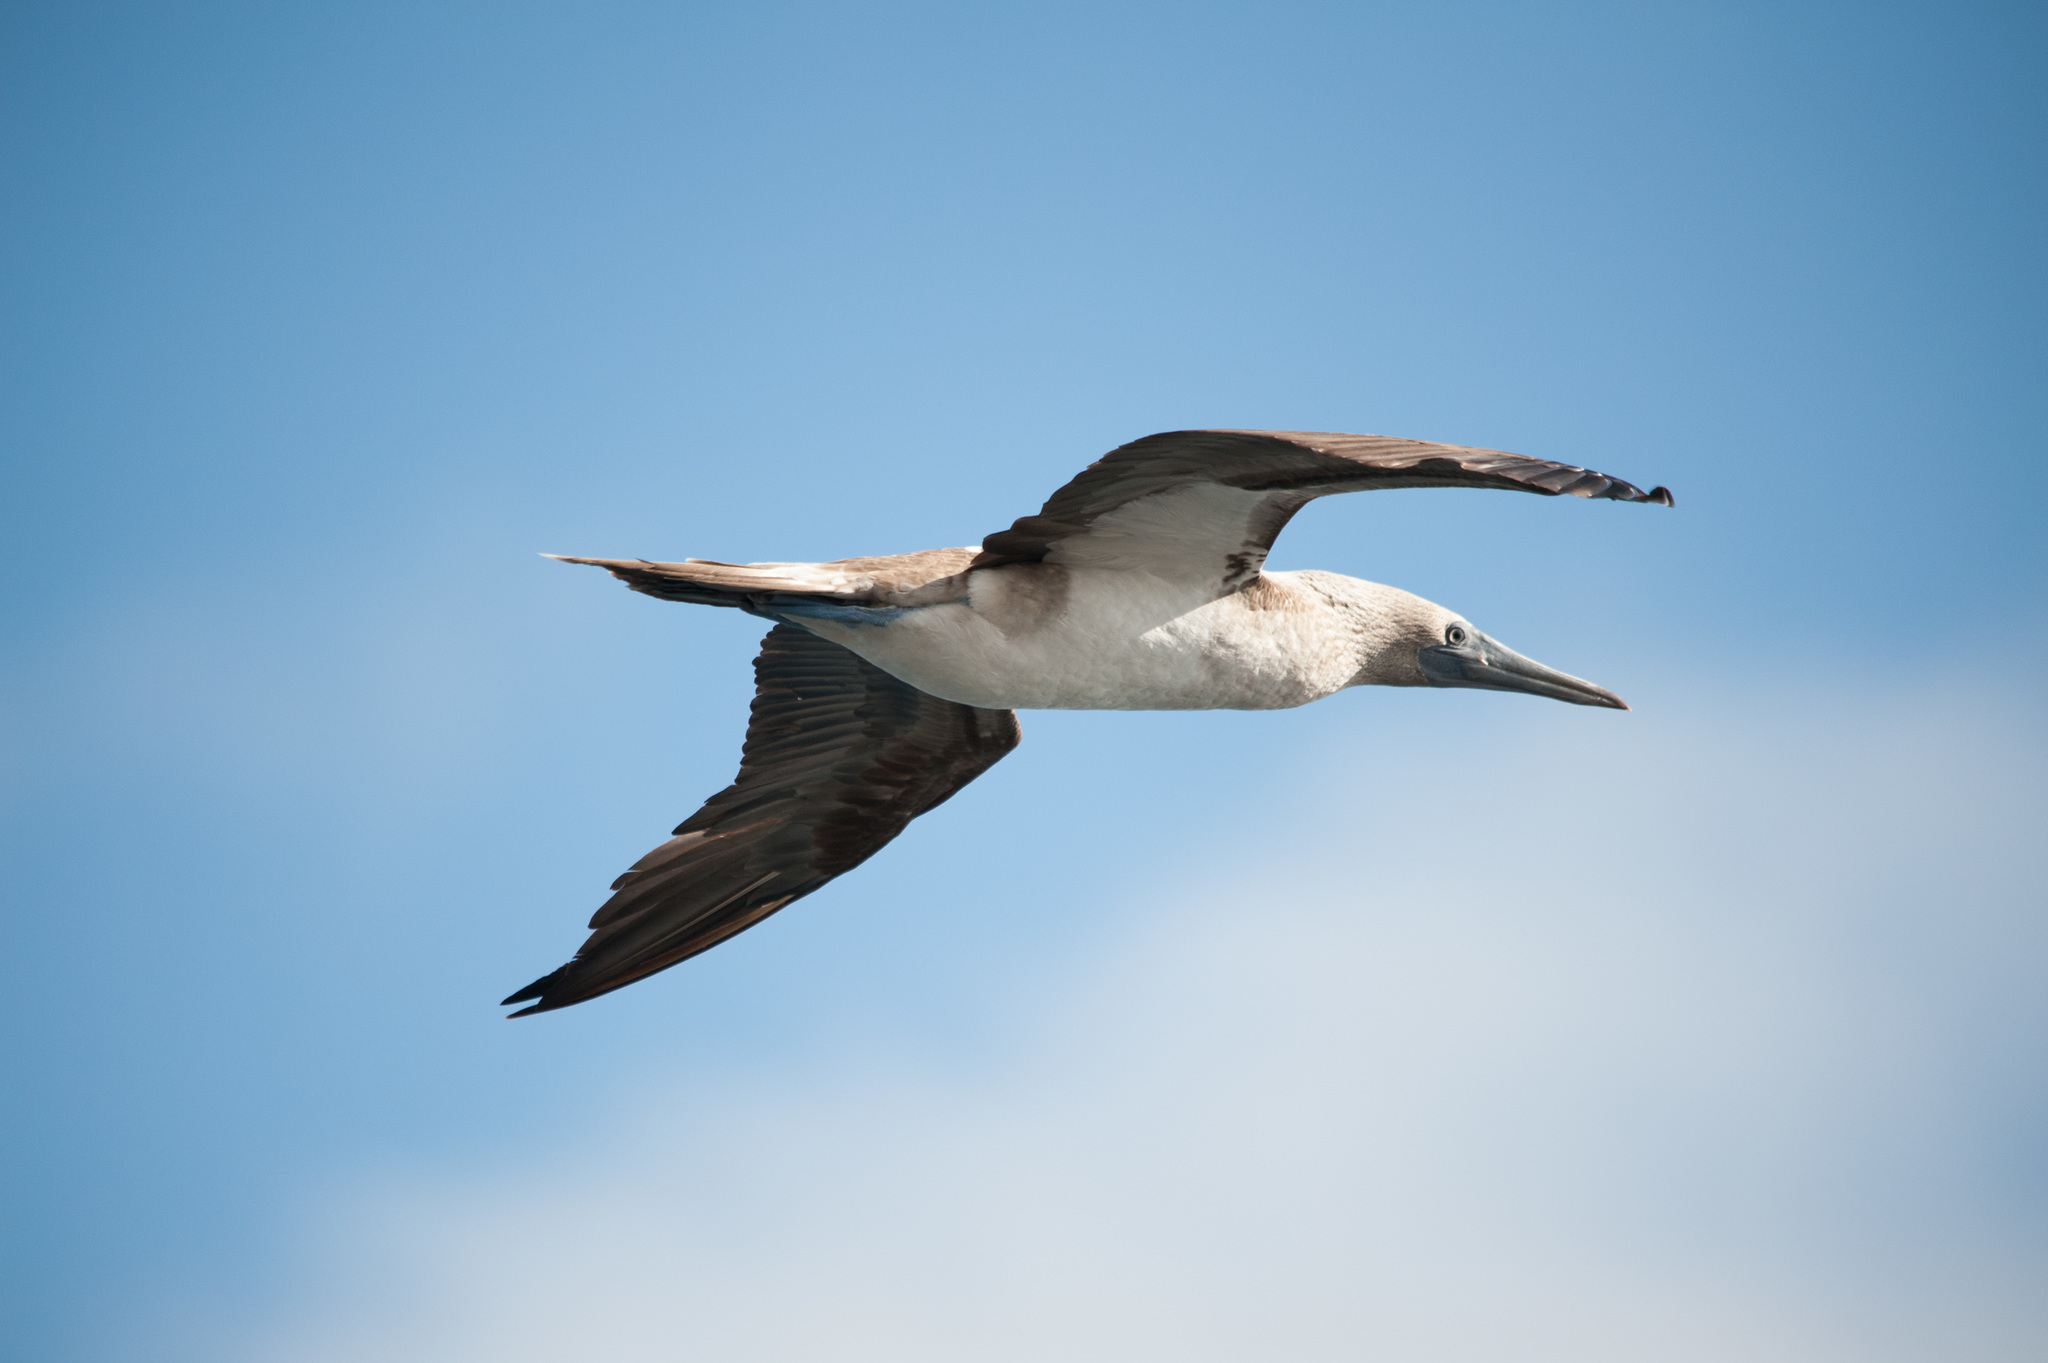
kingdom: Animalia
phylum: Chordata
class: Aves
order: Suliformes
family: Sulidae
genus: Sula
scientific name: Sula nebouxii
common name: Blue-footed booby
